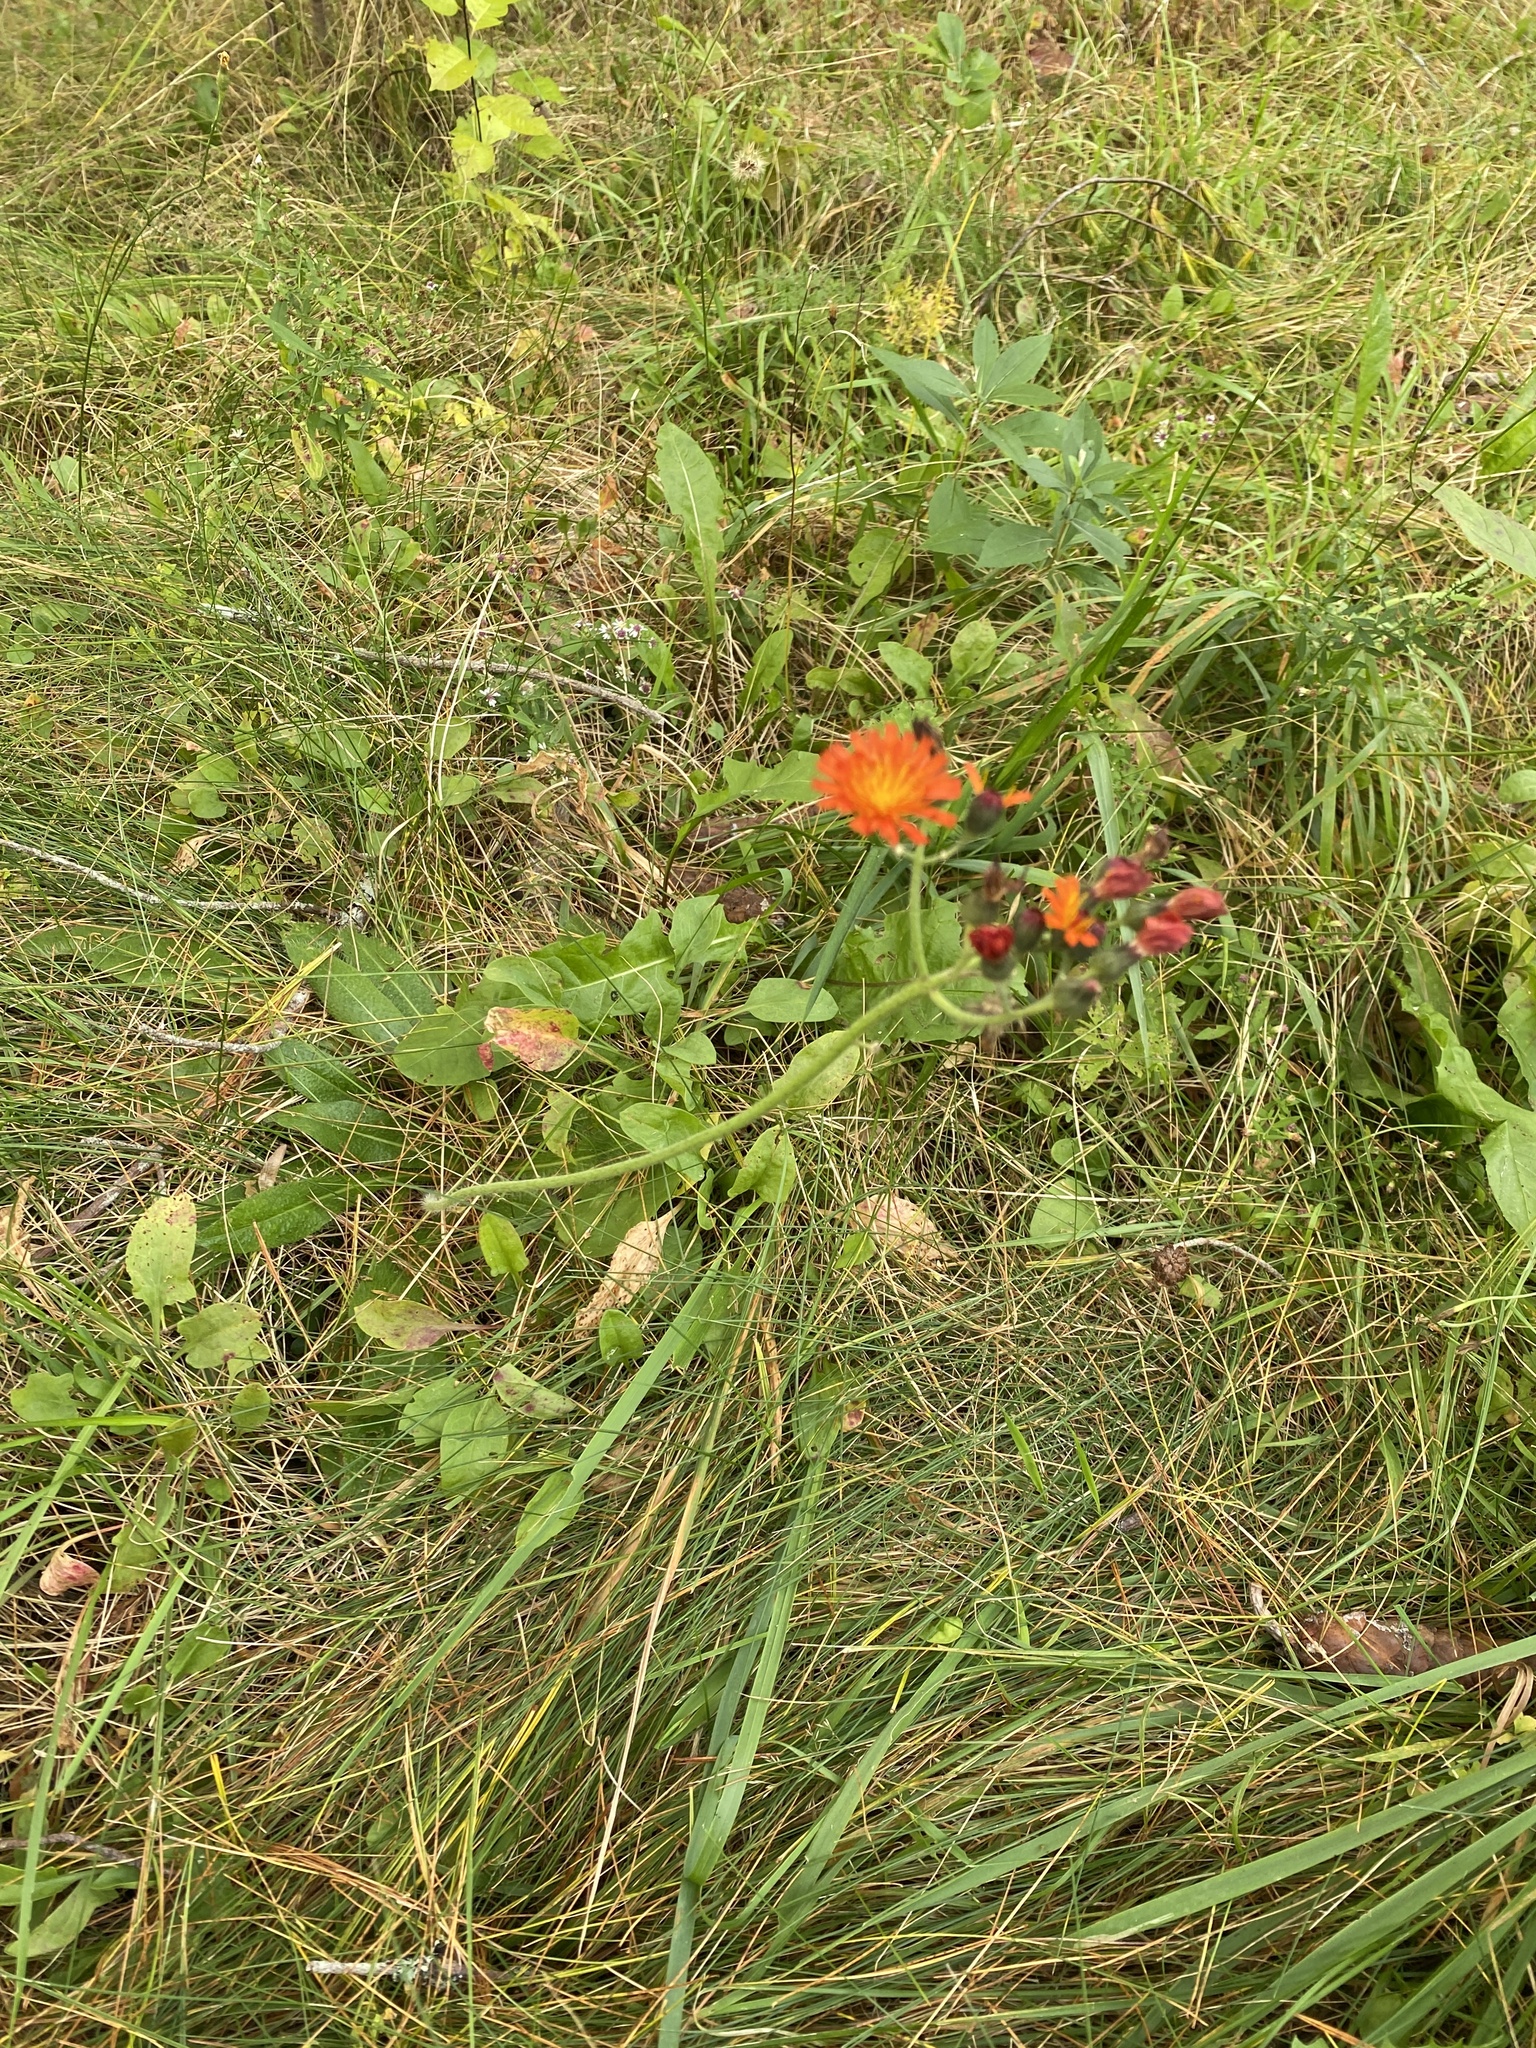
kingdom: Plantae
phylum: Tracheophyta
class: Magnoliopsida
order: Asterales
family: Asteraceae
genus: Pilosella
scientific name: Pilosella aurantiaca
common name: Fox-and-cubs
